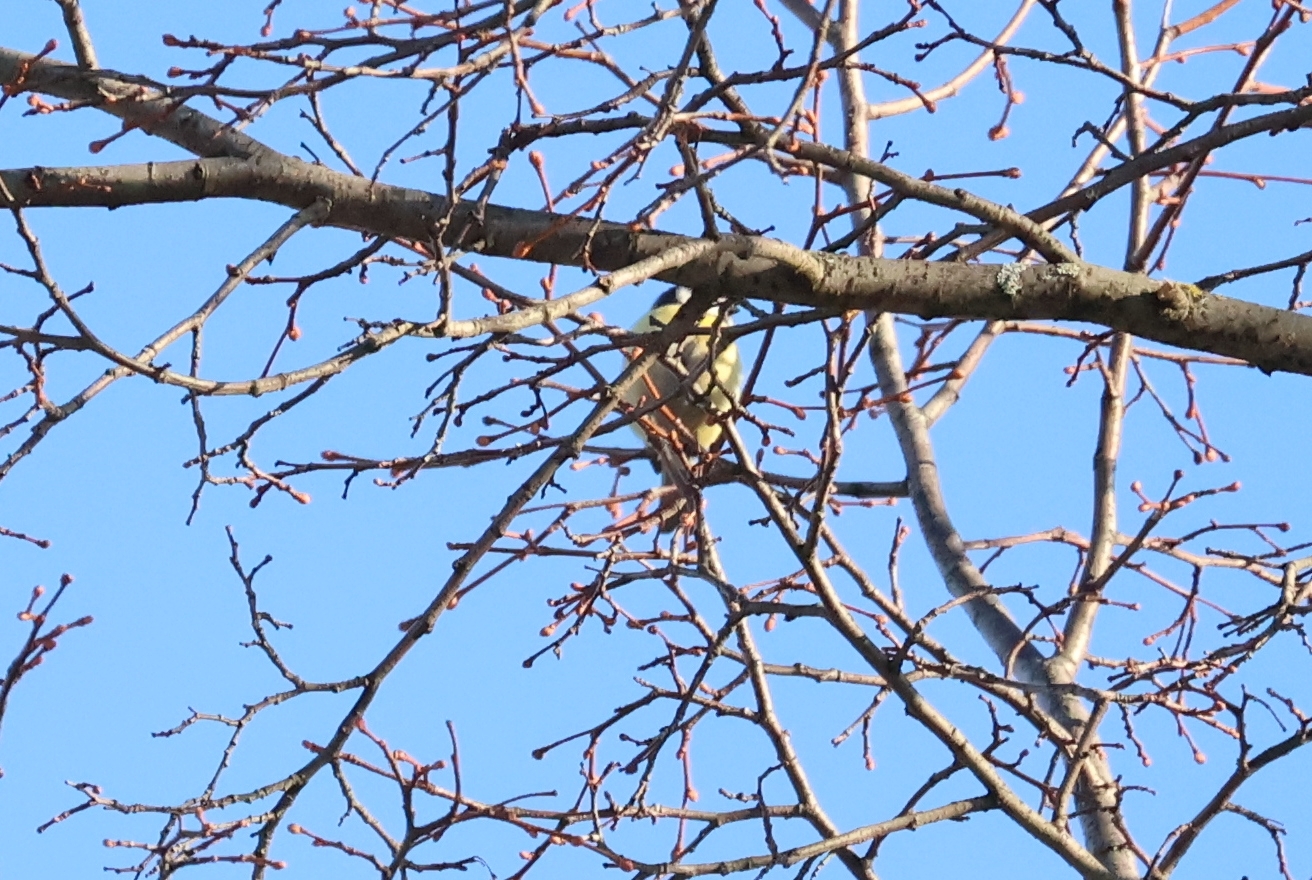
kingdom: Animalia
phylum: Chordata
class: Aves
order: Passeriformes
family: Paridae
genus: Cyanistes
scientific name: Cyanistes caeruleus
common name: Eurasian blue tit
